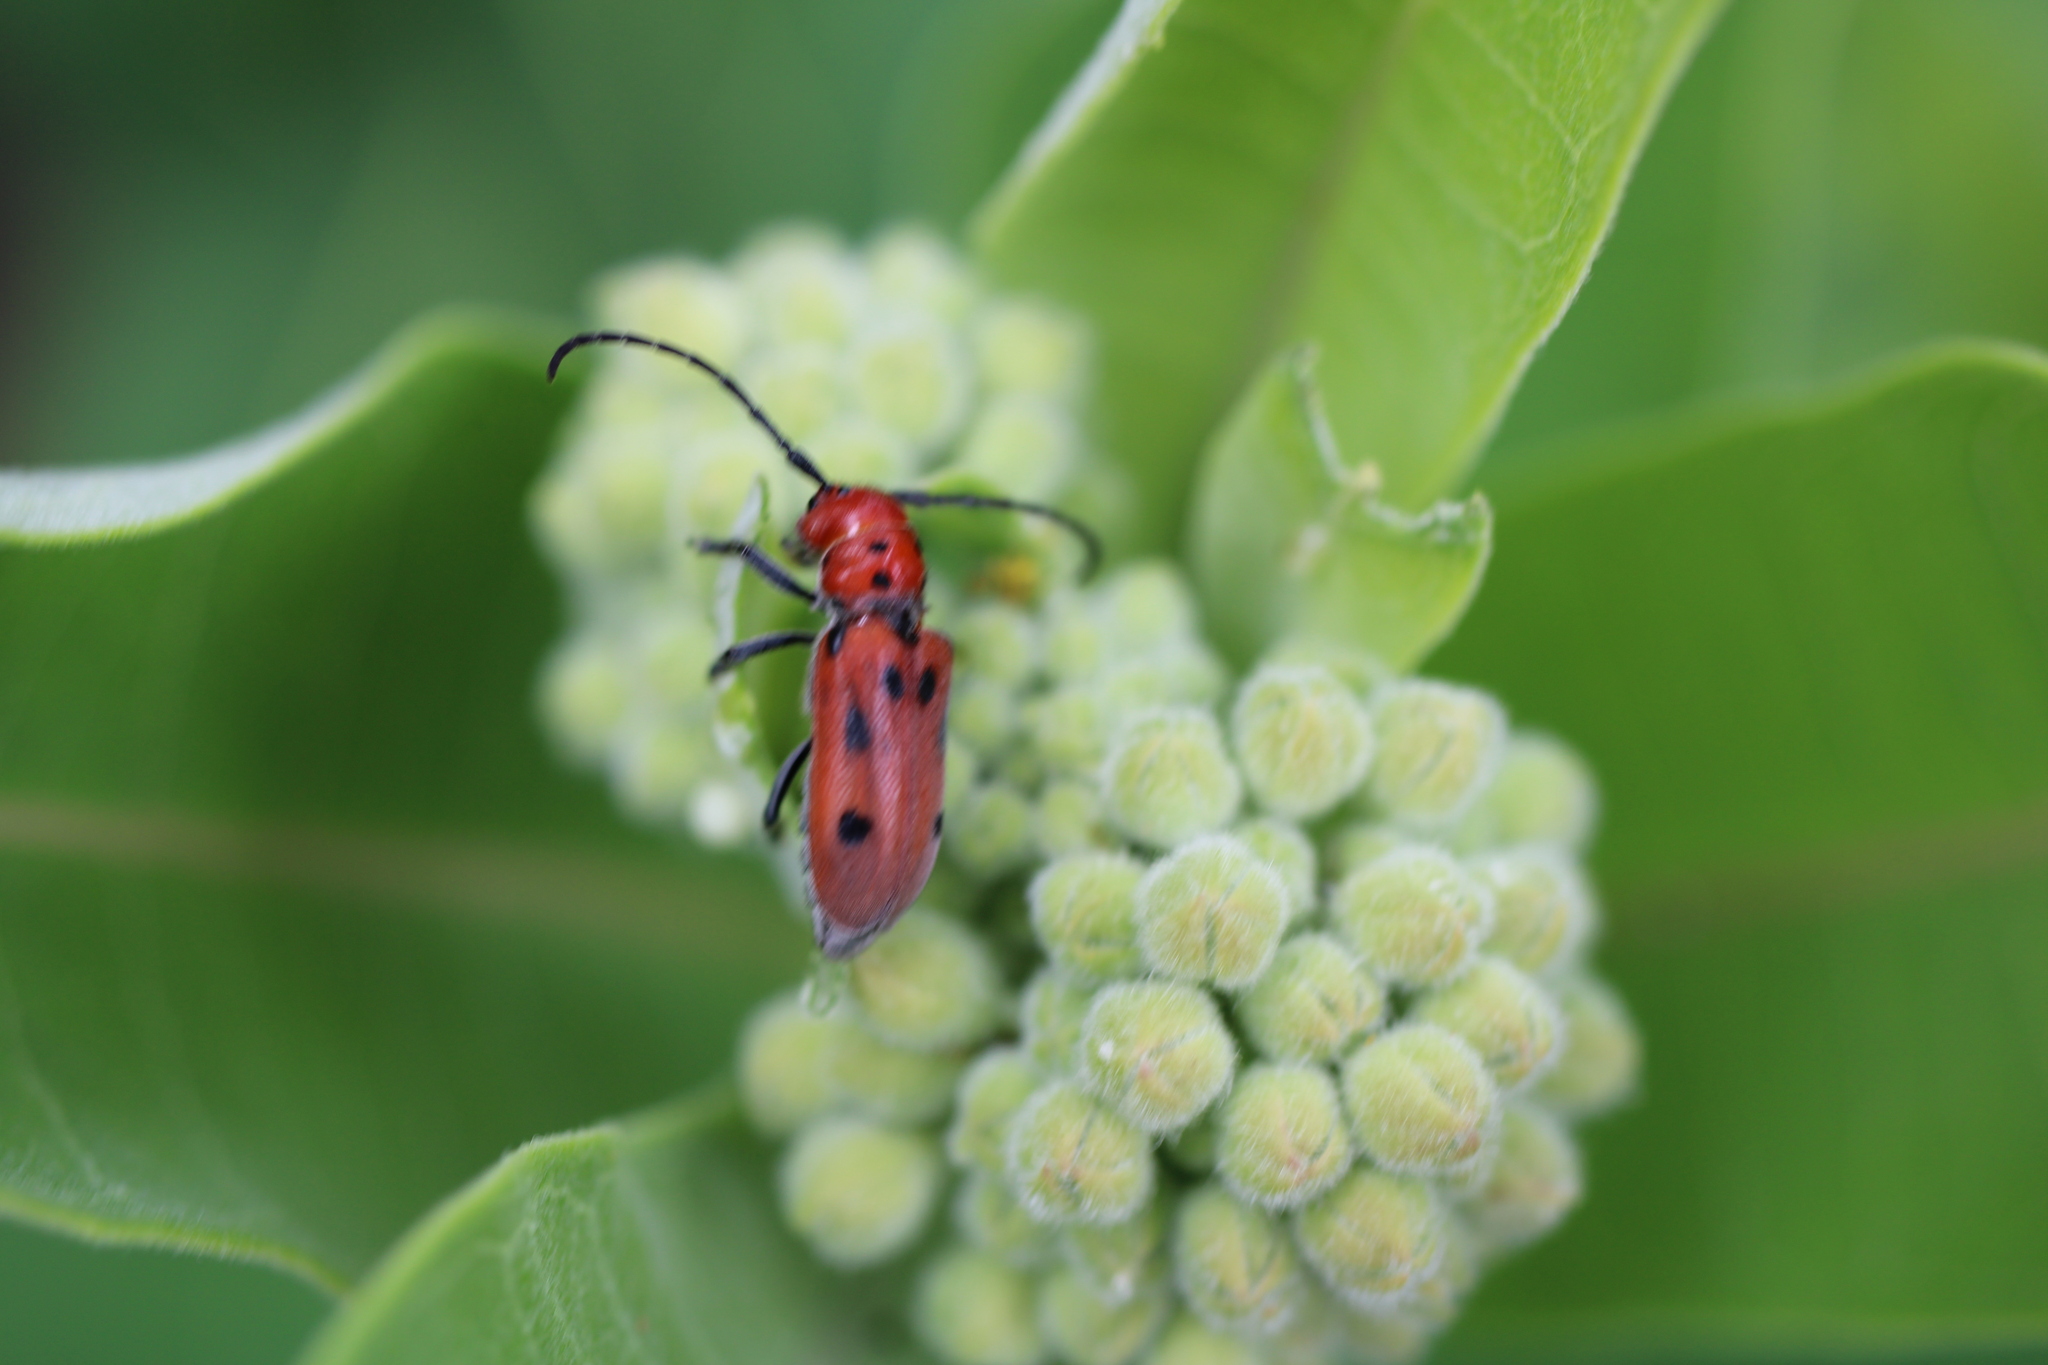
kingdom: Animalia
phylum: Arthropoda
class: Insecta
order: Coleoptera
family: Cerambycidae
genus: Tetraopes
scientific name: Tetraopes tetrophthalmus
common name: Red milkweed beetle
